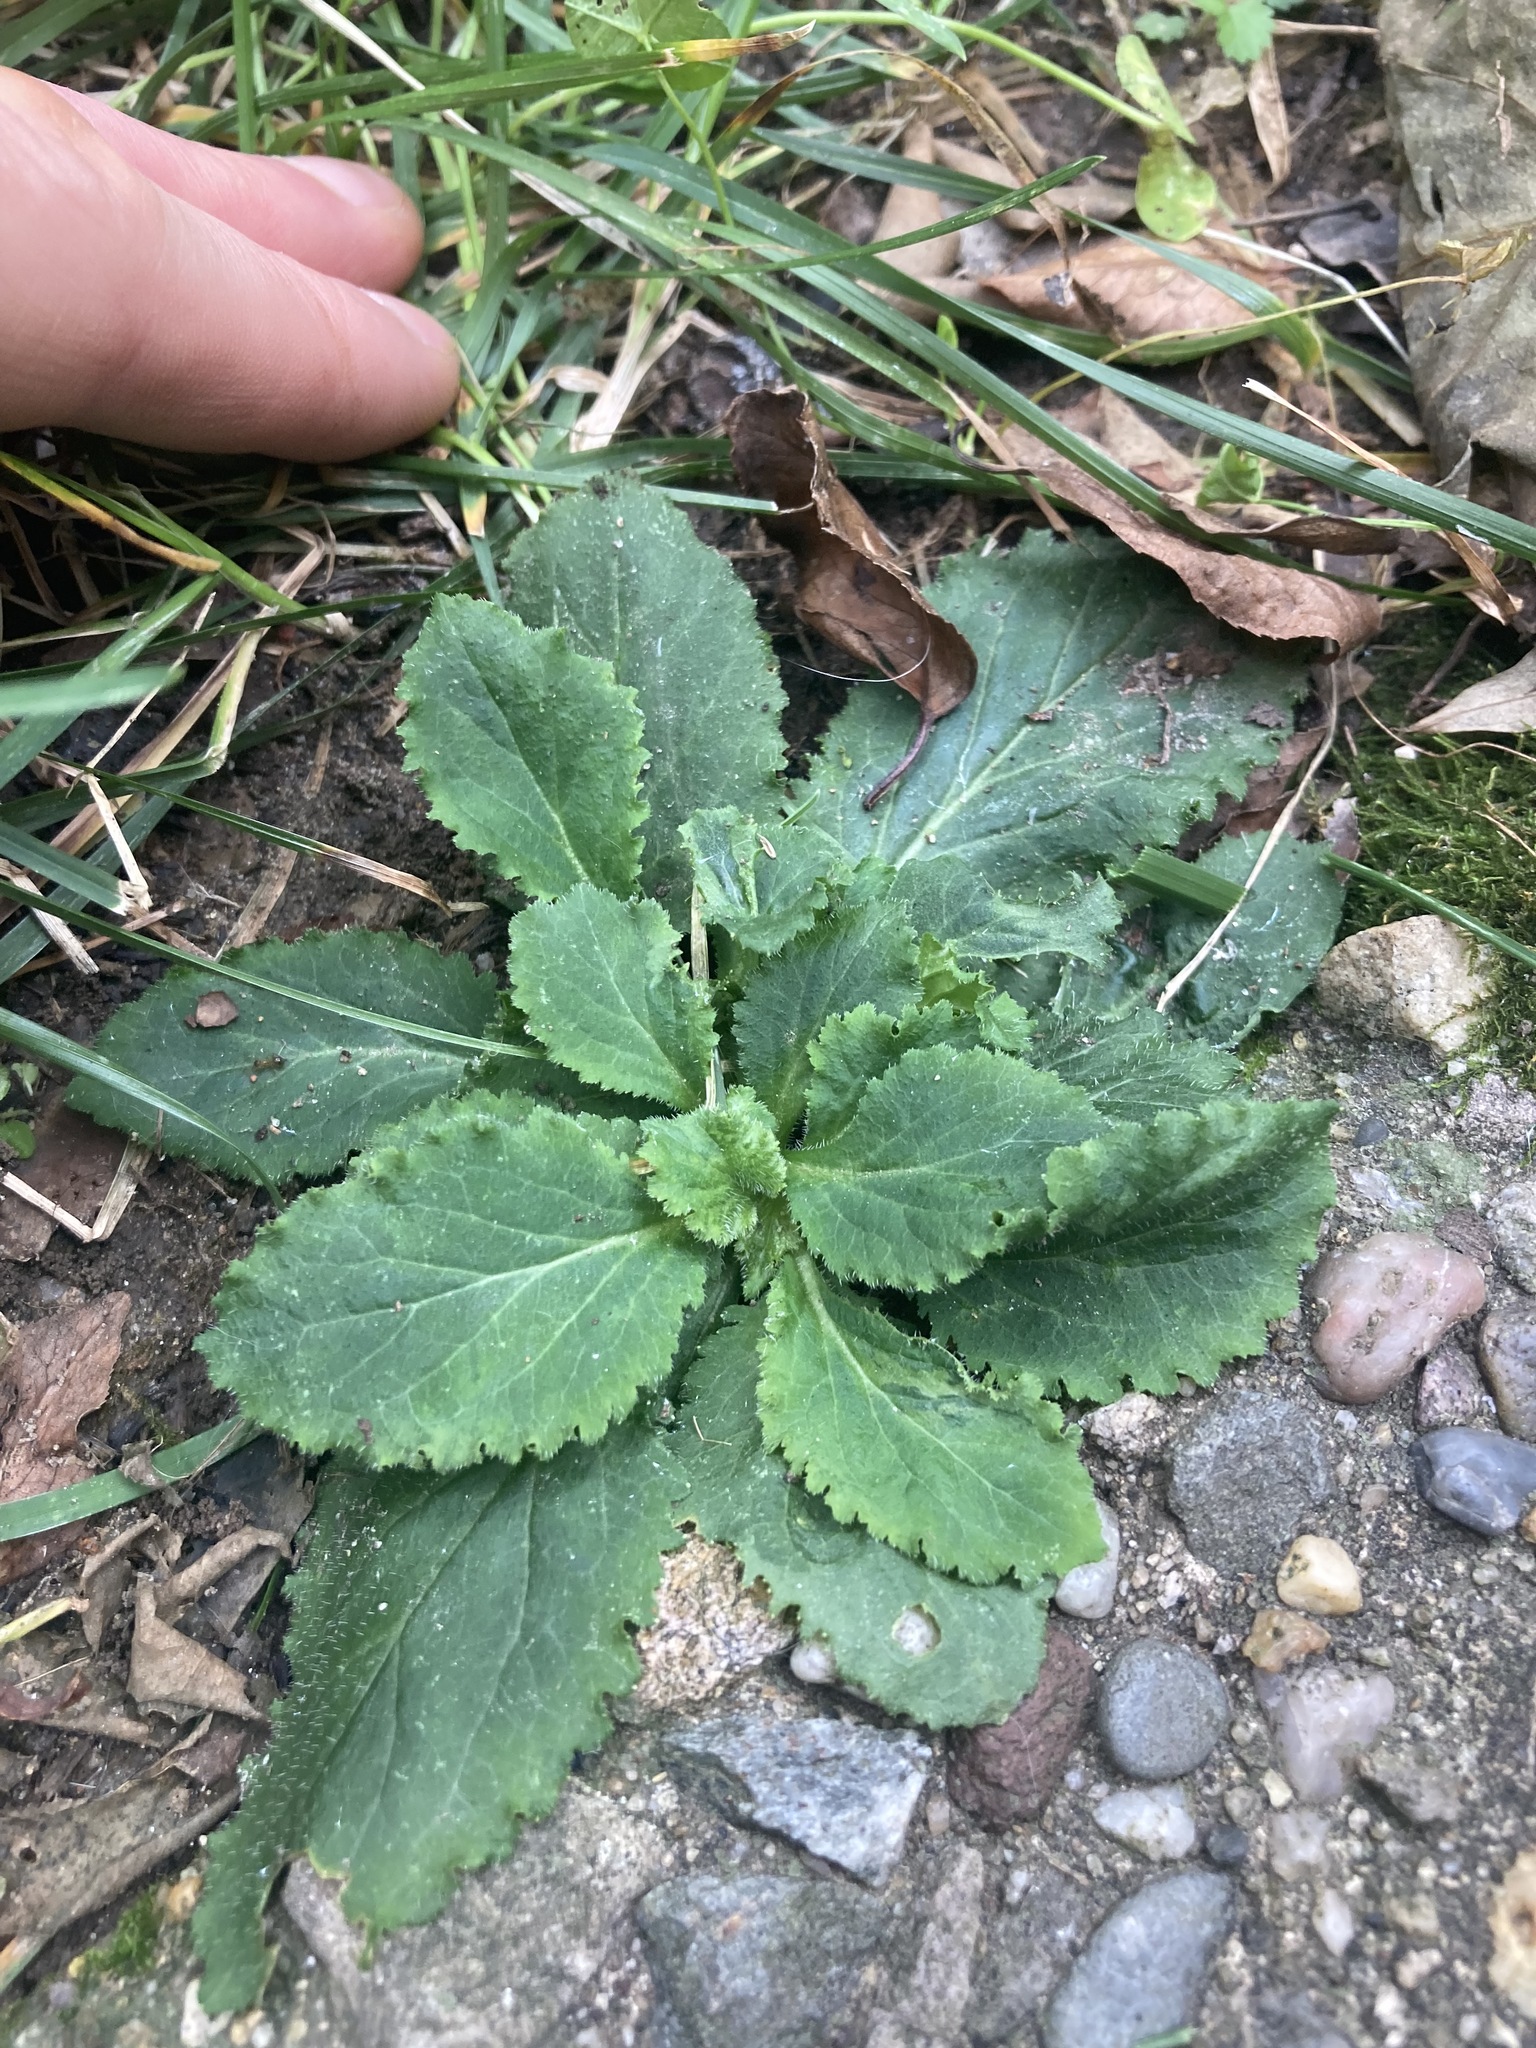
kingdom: Plantae
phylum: Tracheophyta
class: Magnoliopsida
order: Asterales
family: Campanulaceae
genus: Lobelia
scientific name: Lobelia inflata
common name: Indian tobacco
